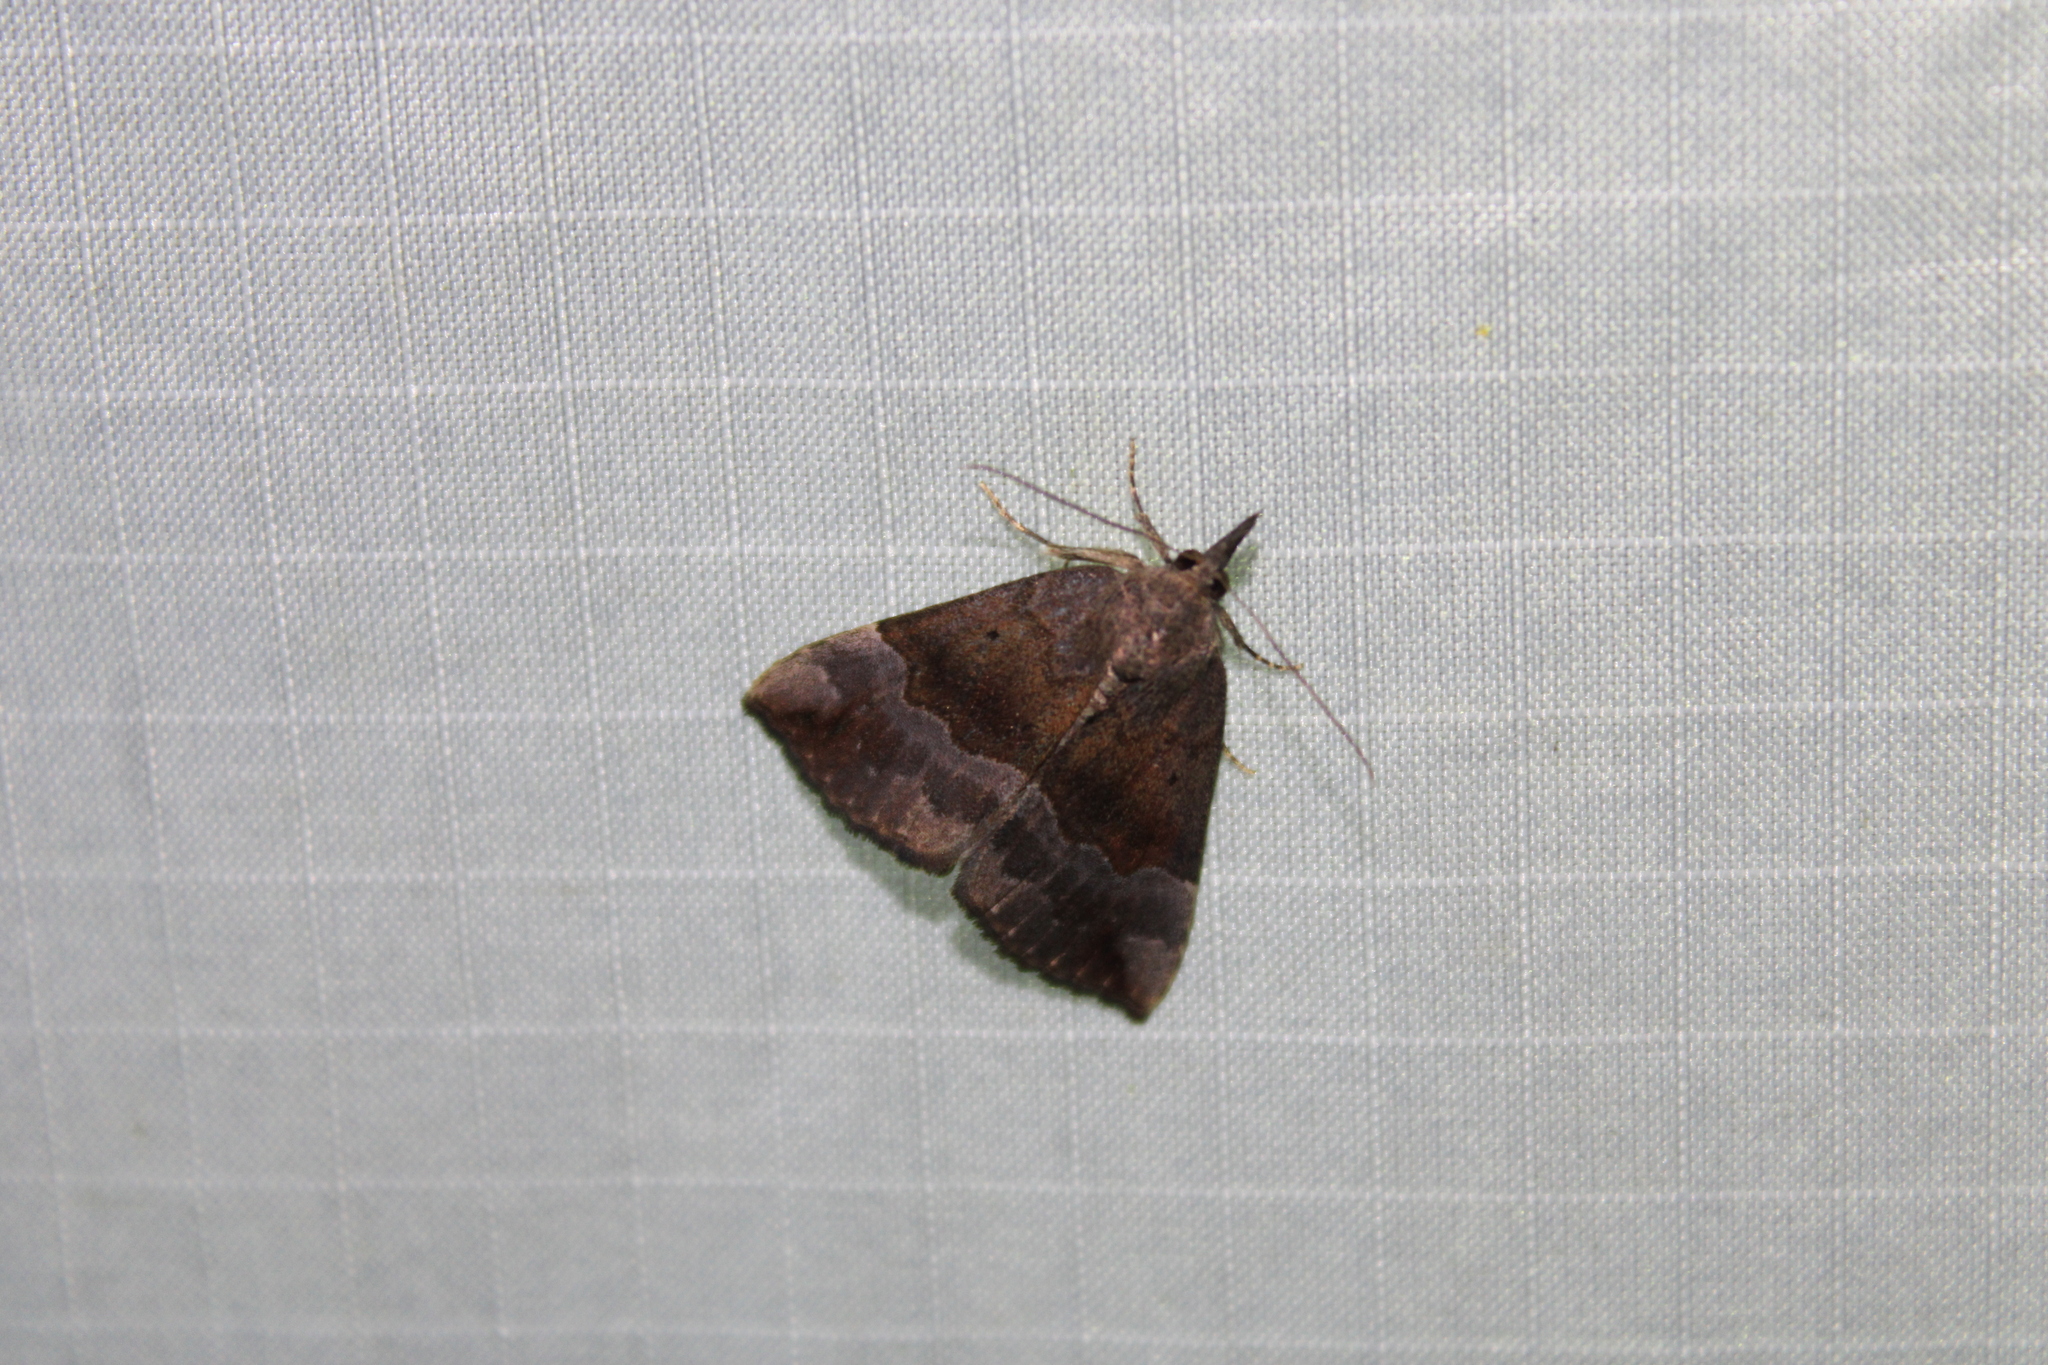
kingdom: Animalia
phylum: Arthropoda
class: Insecta
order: Lepidoptera
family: Erebidae
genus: Hypena
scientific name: Hypena madefactalis
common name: Gray-edged snout
